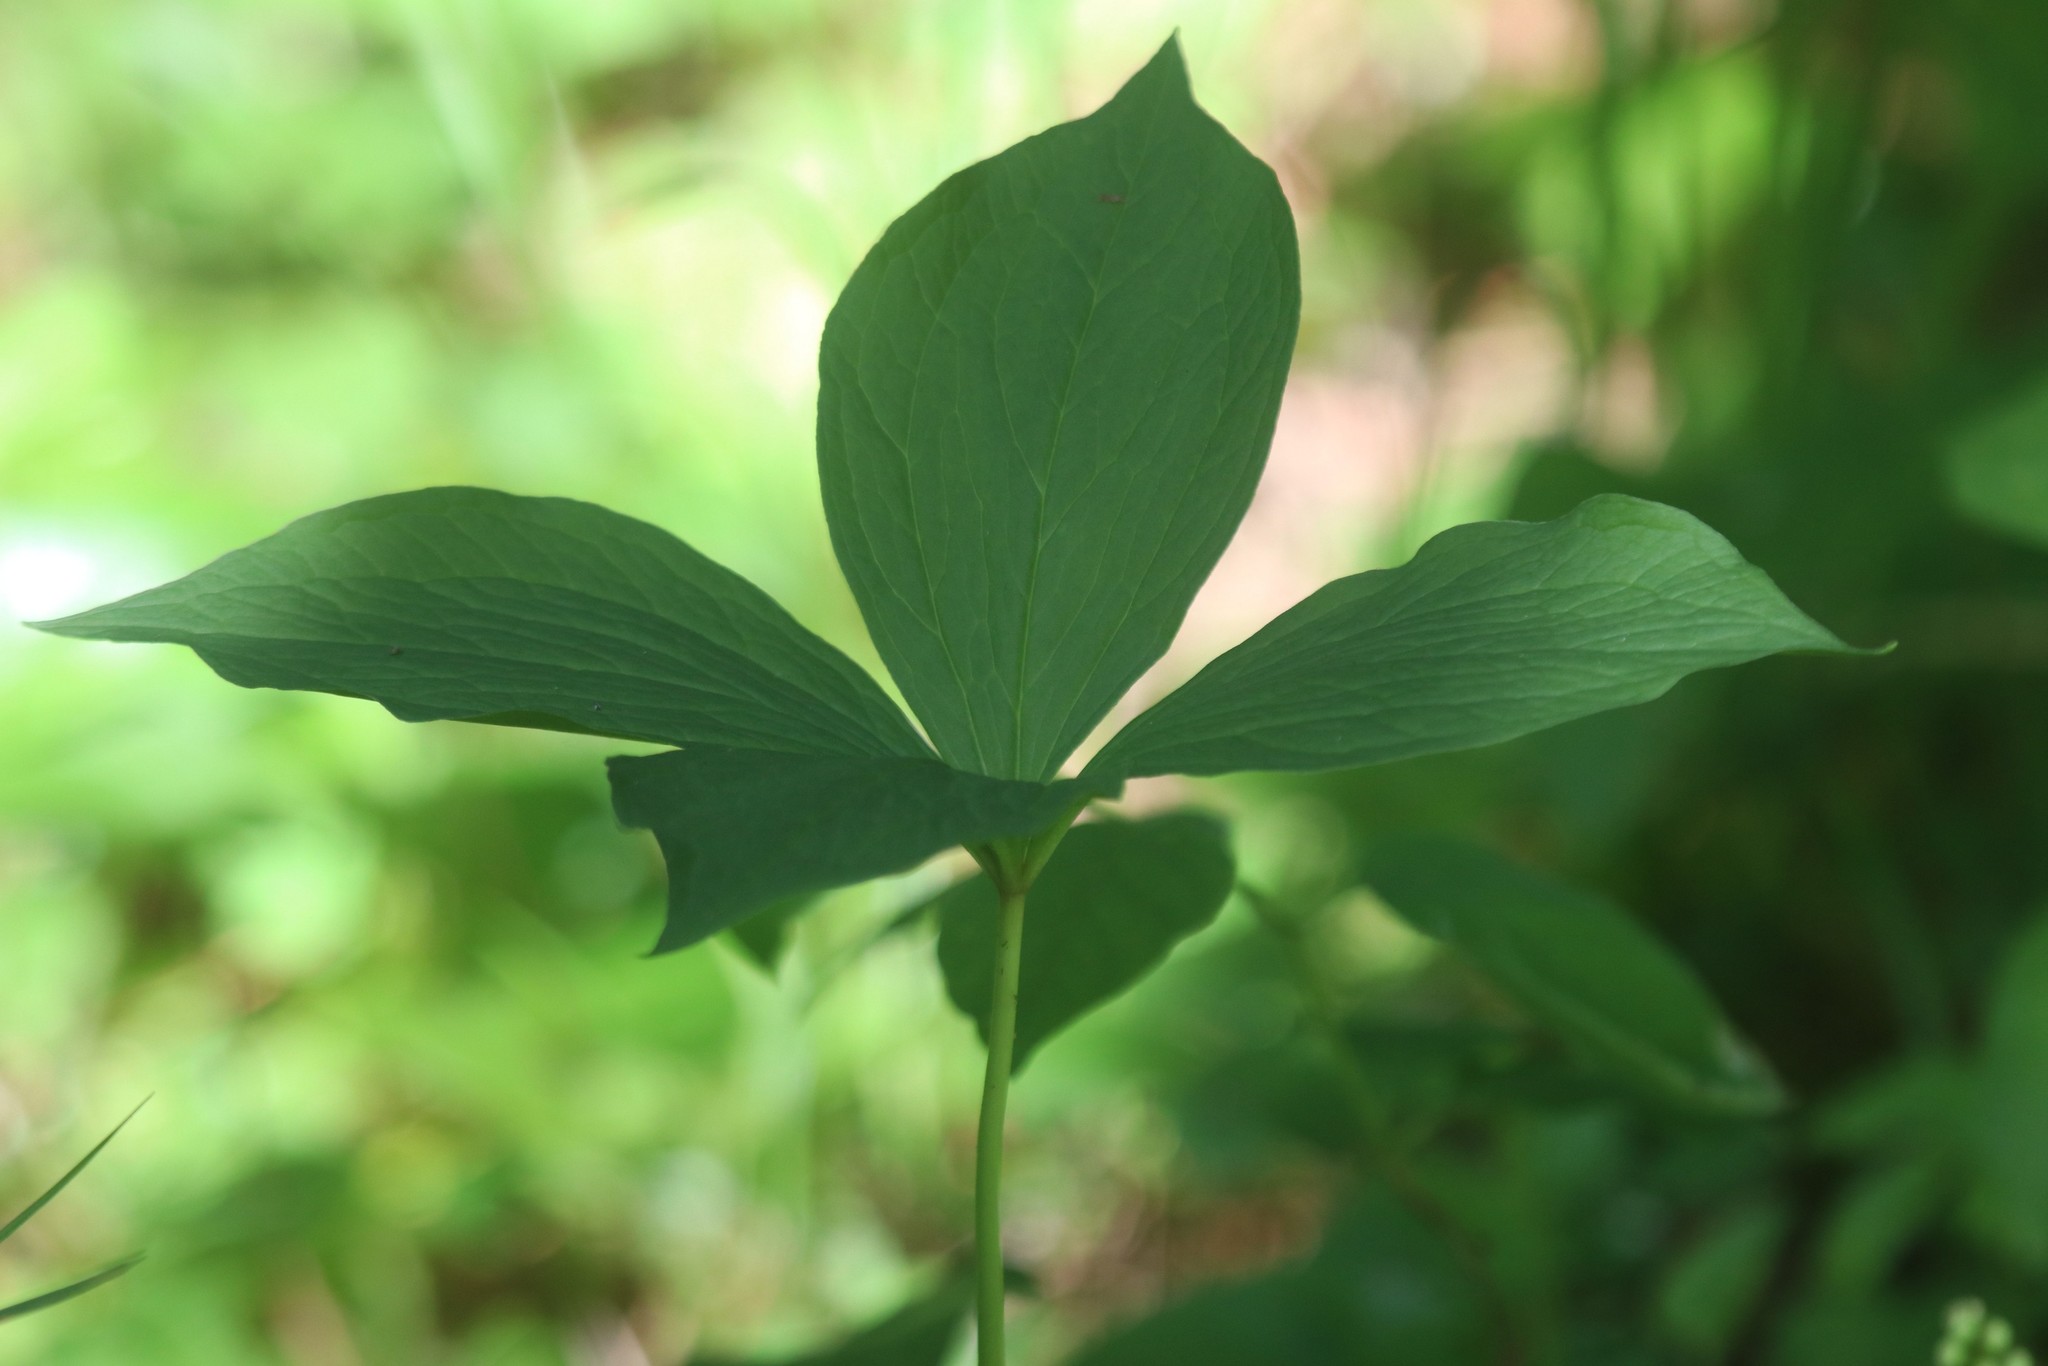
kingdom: Plantae
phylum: Tracheophyta
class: Liliopsida
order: Liliales
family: Melanthiaceae
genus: Paris
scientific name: Paris quadrifolia
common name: Herb-paris
